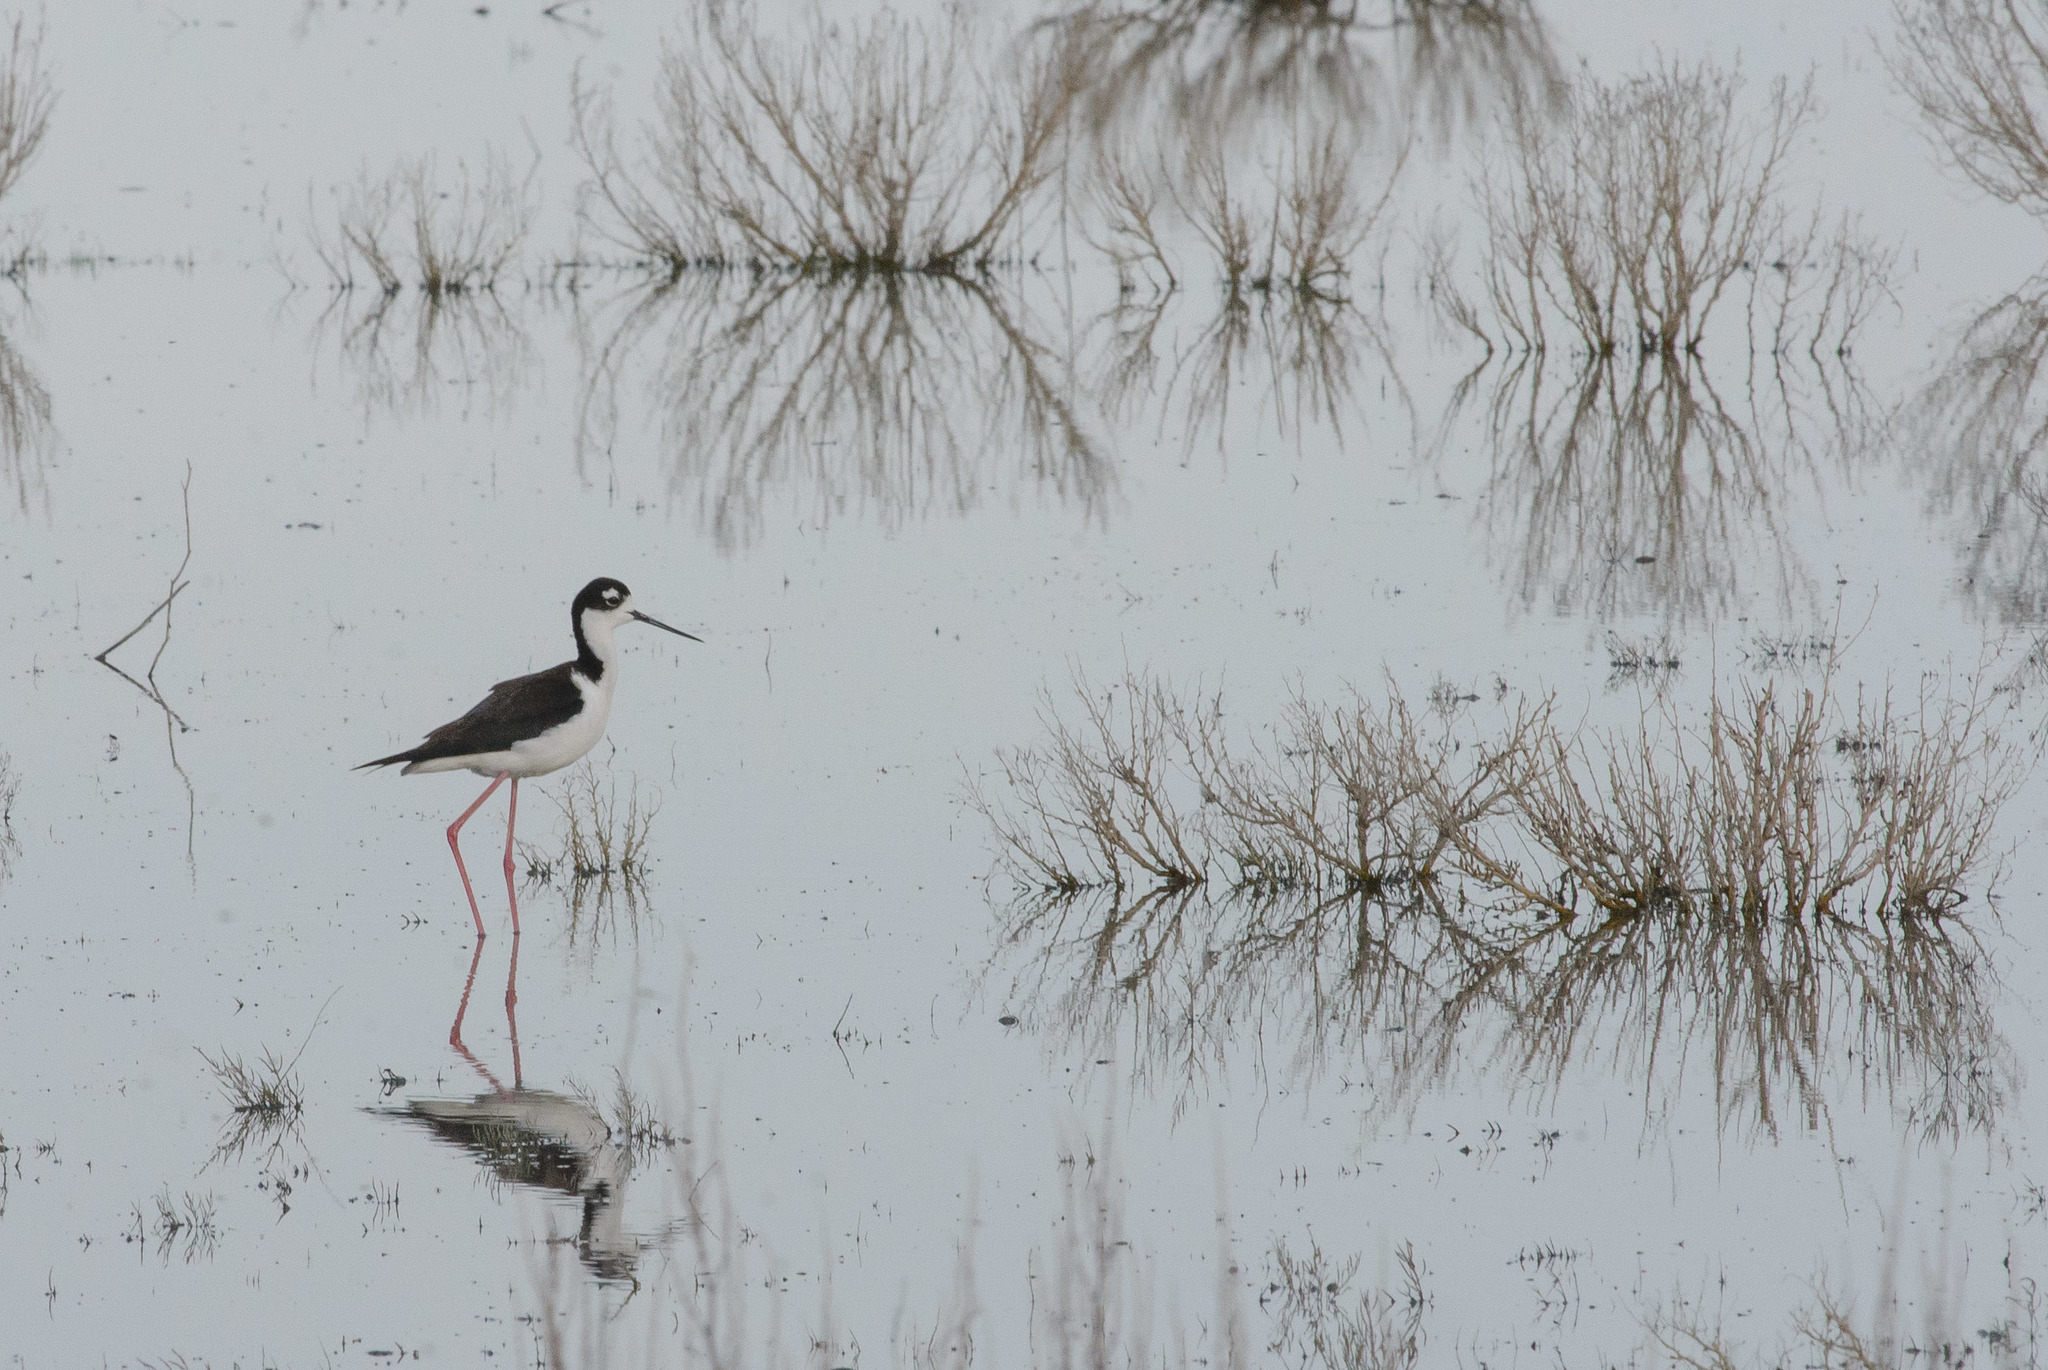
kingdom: Animalia
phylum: Chordata
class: Aves
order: Charadriiformes
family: Recurvirostridae
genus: Himantopus
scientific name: Himantopus mexicanus
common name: Black-necked stilt
